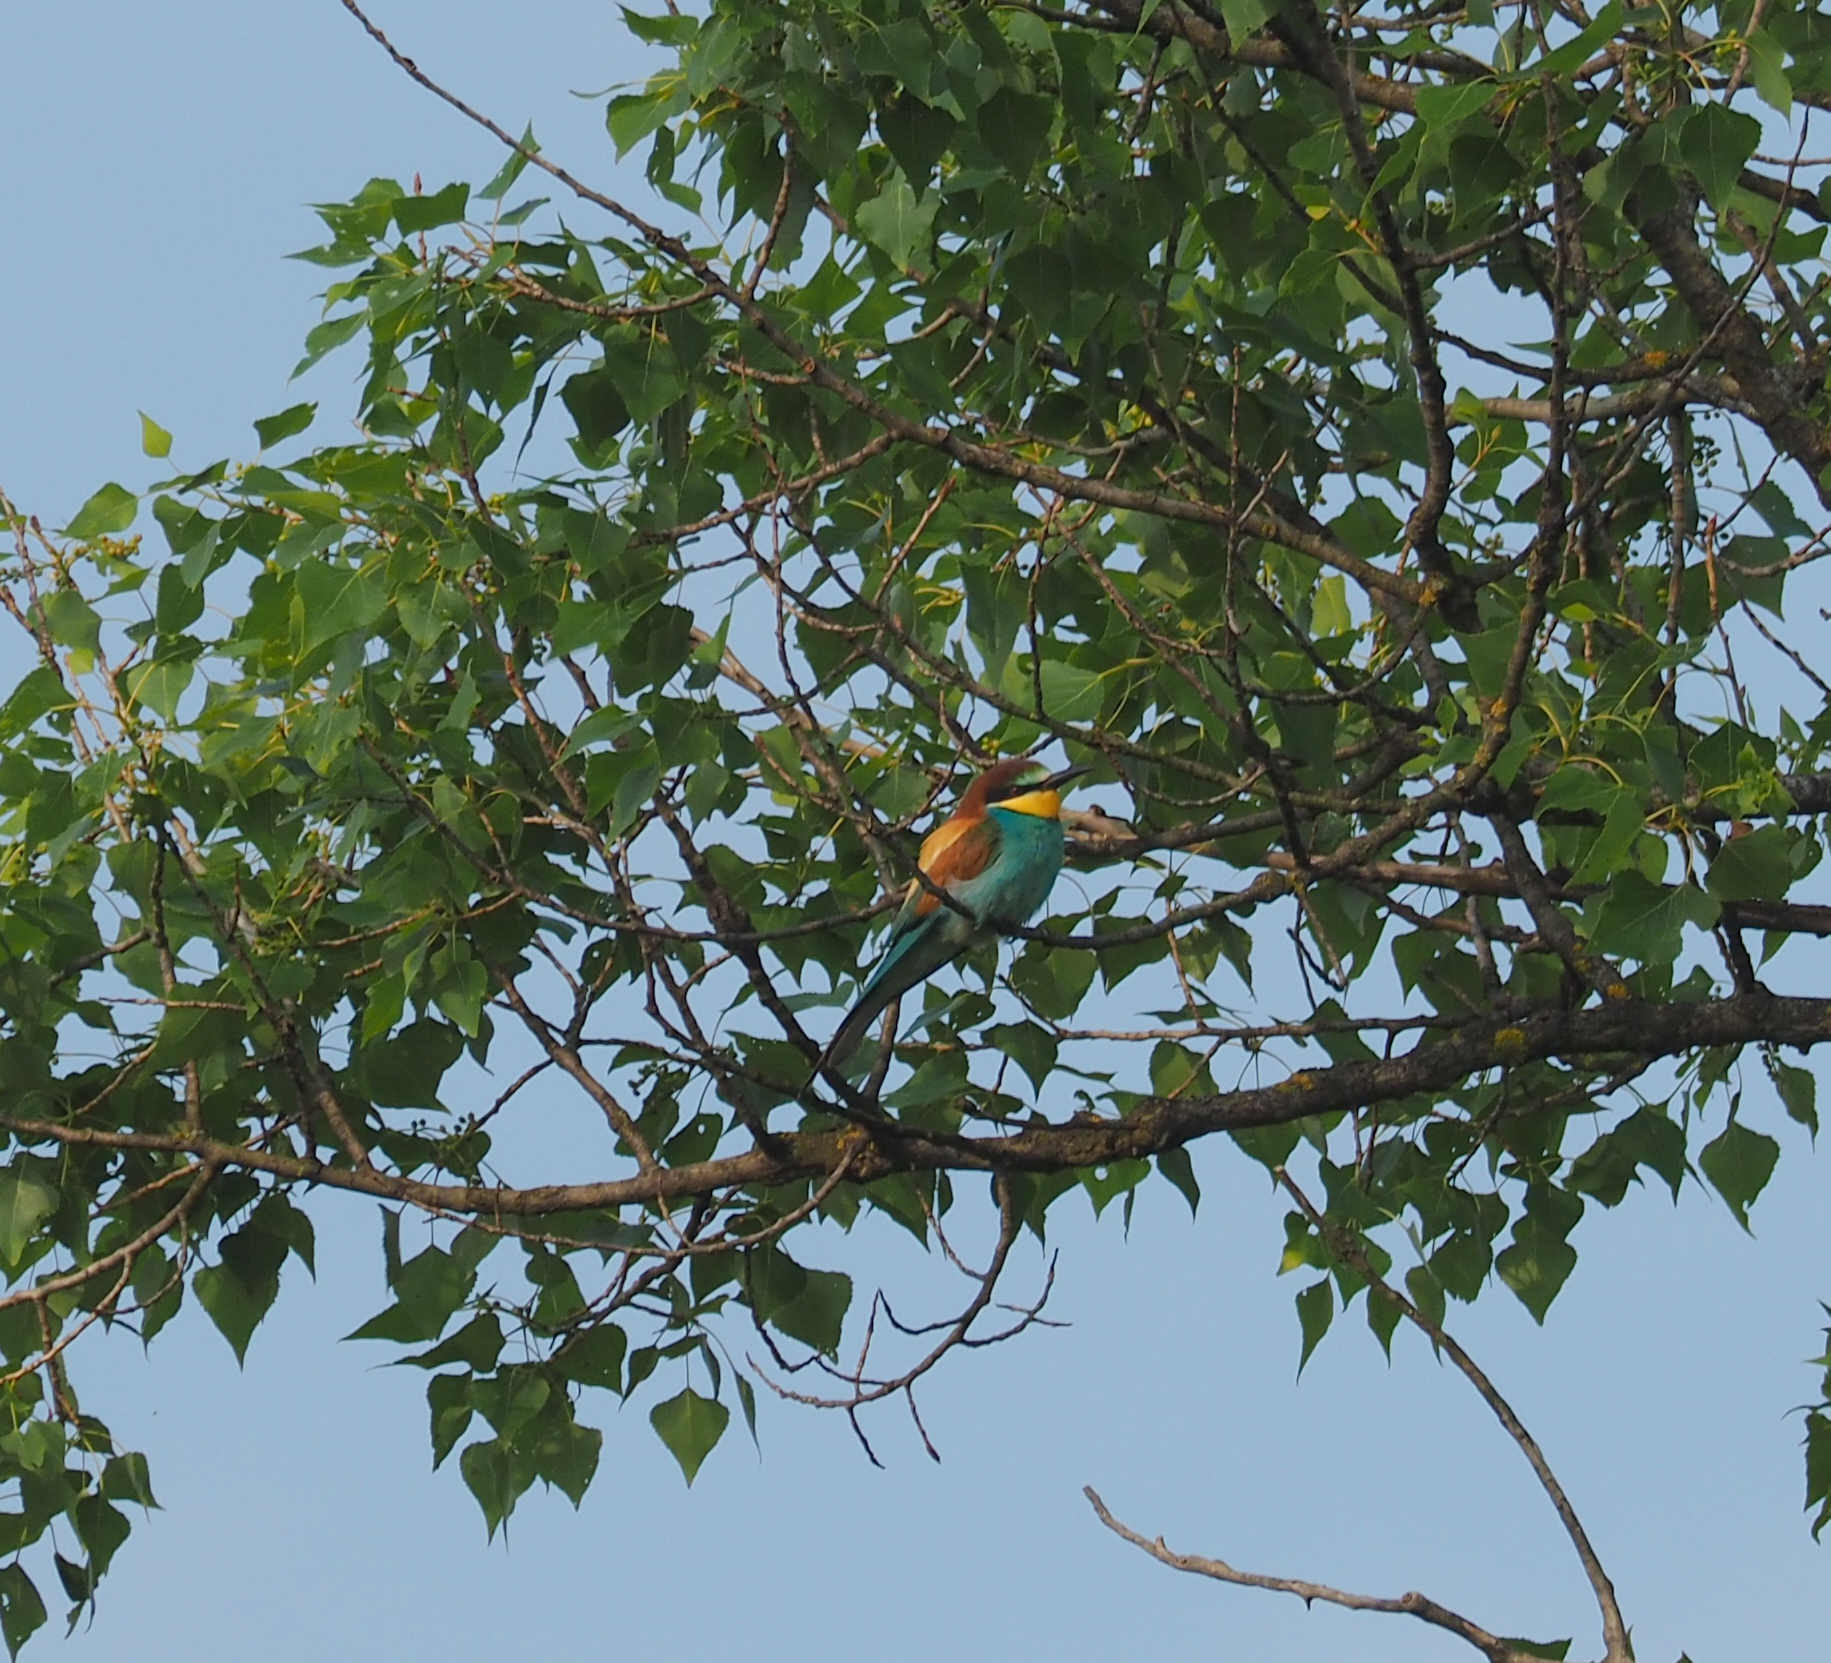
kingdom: Animalia
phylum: Chordata
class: Aves
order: Coraciiformes
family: Meropidae
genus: Merops
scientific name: Merops apiaster
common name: European bee-eater
